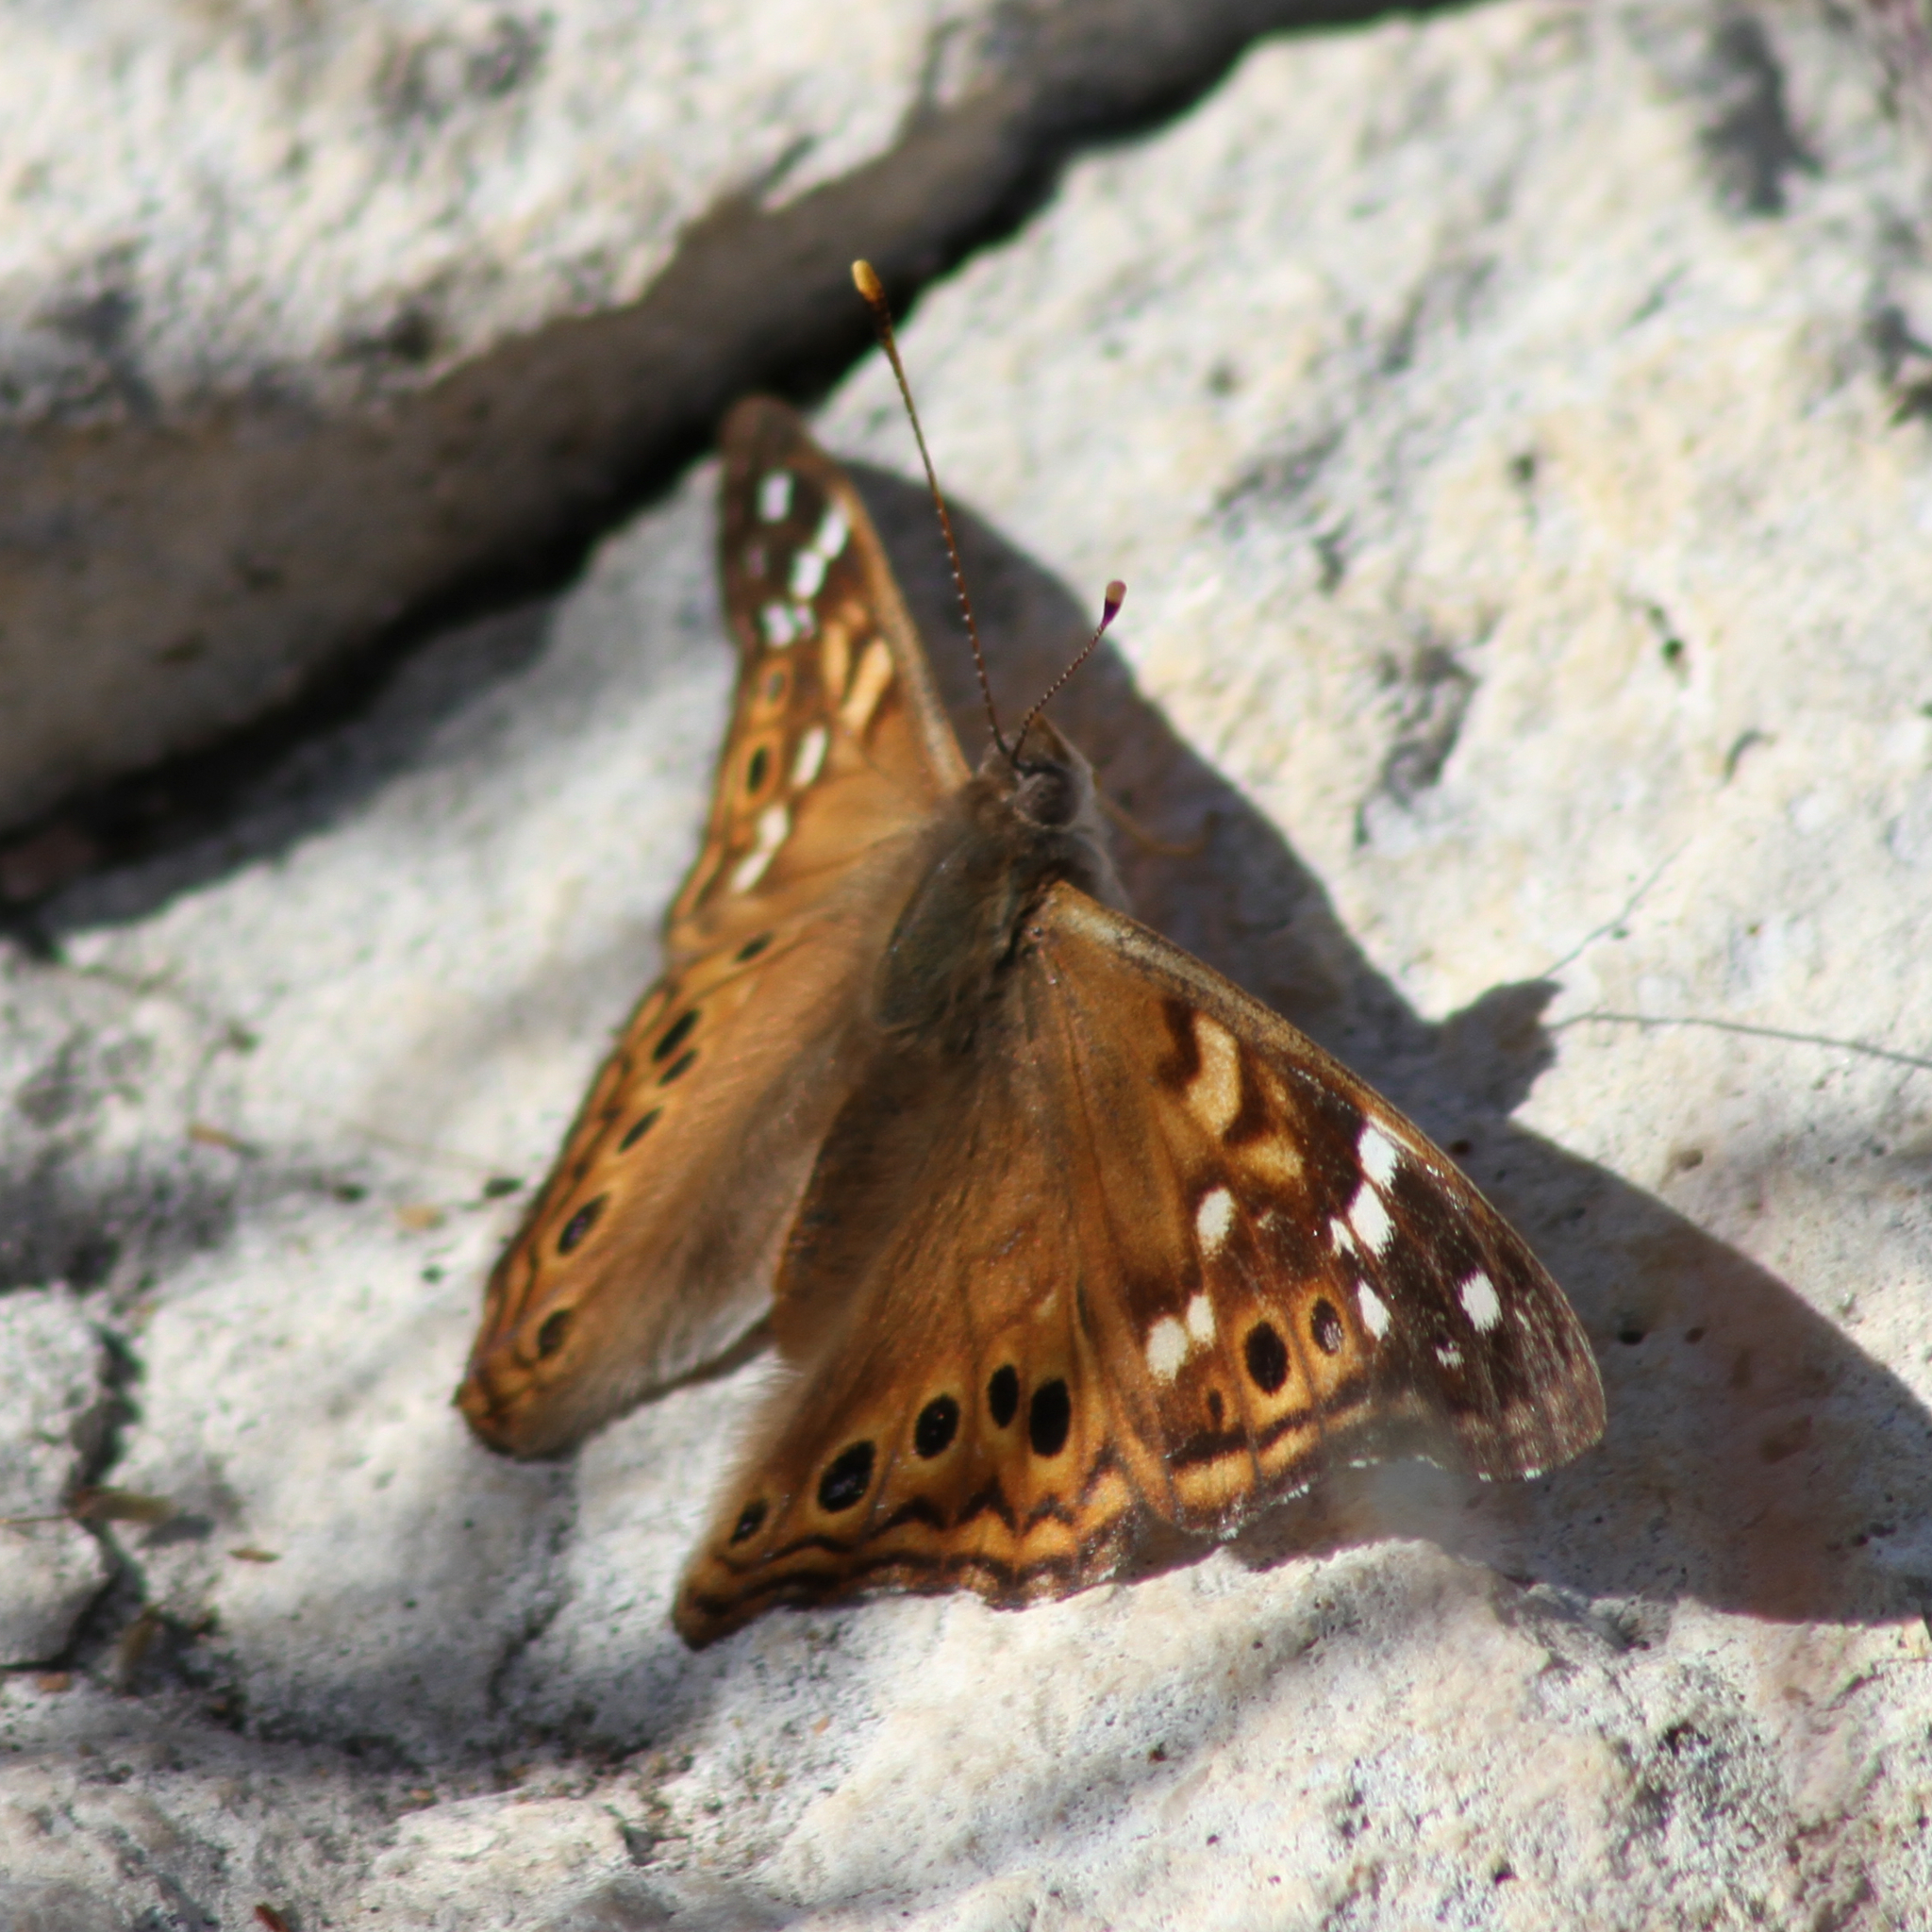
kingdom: Animalia
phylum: Arthropoda
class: Insecta
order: Lepidoptera
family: Nymphalidae
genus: Asterocampa
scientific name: Asterocampa leilia
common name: Empress leilia
